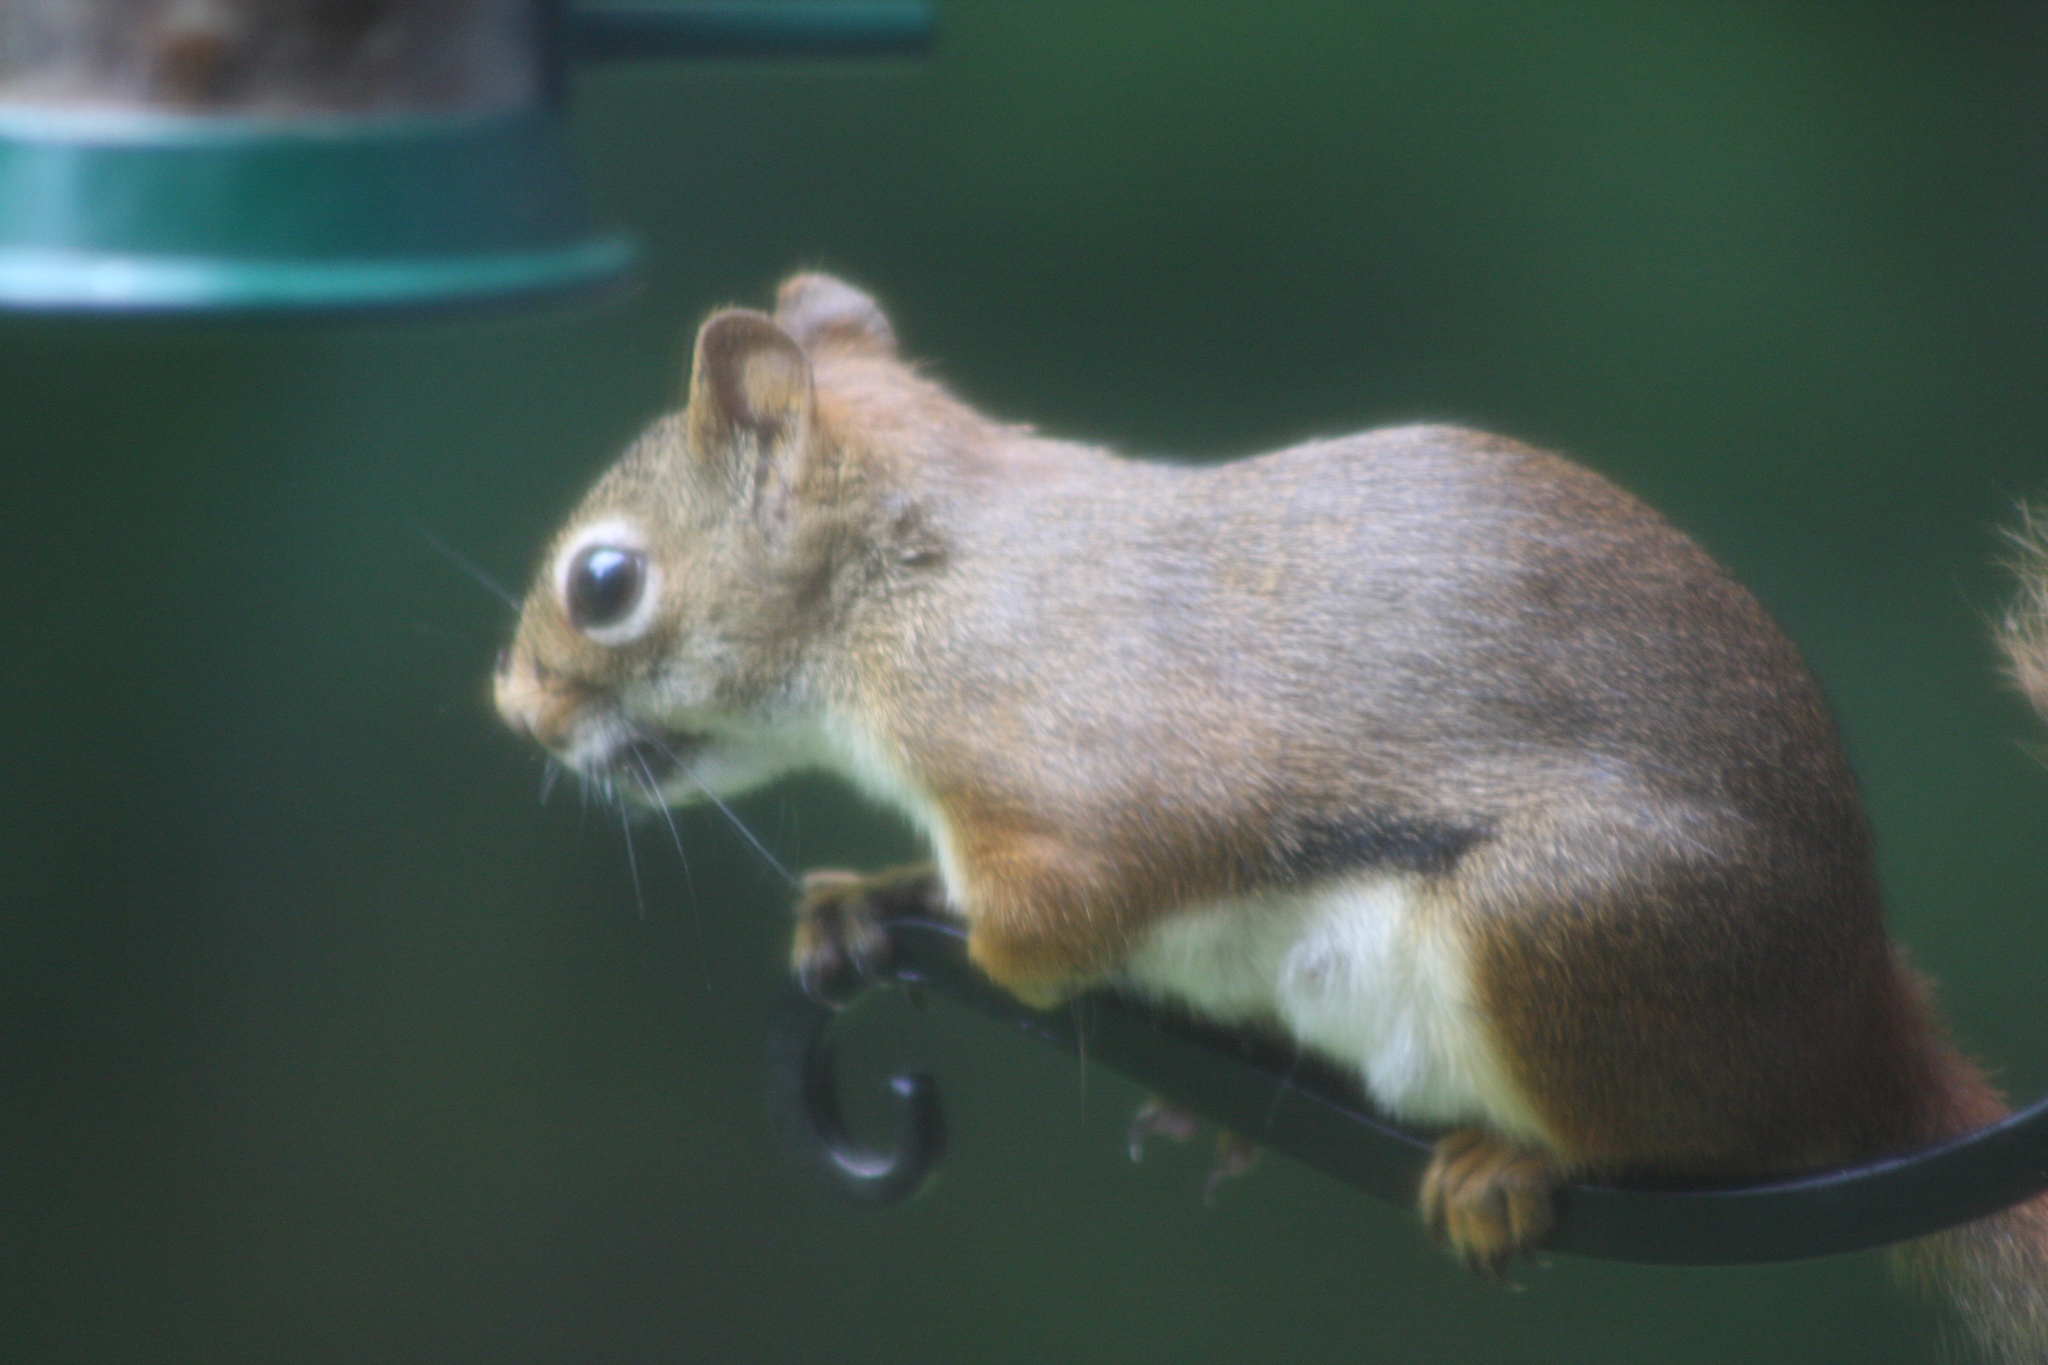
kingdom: Animalia
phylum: Chordata
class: Mammalia
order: Rodentia
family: Sciuridae
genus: Tamiasciurus
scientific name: Tamiasciurus hudsonicus
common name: Red squirrel
